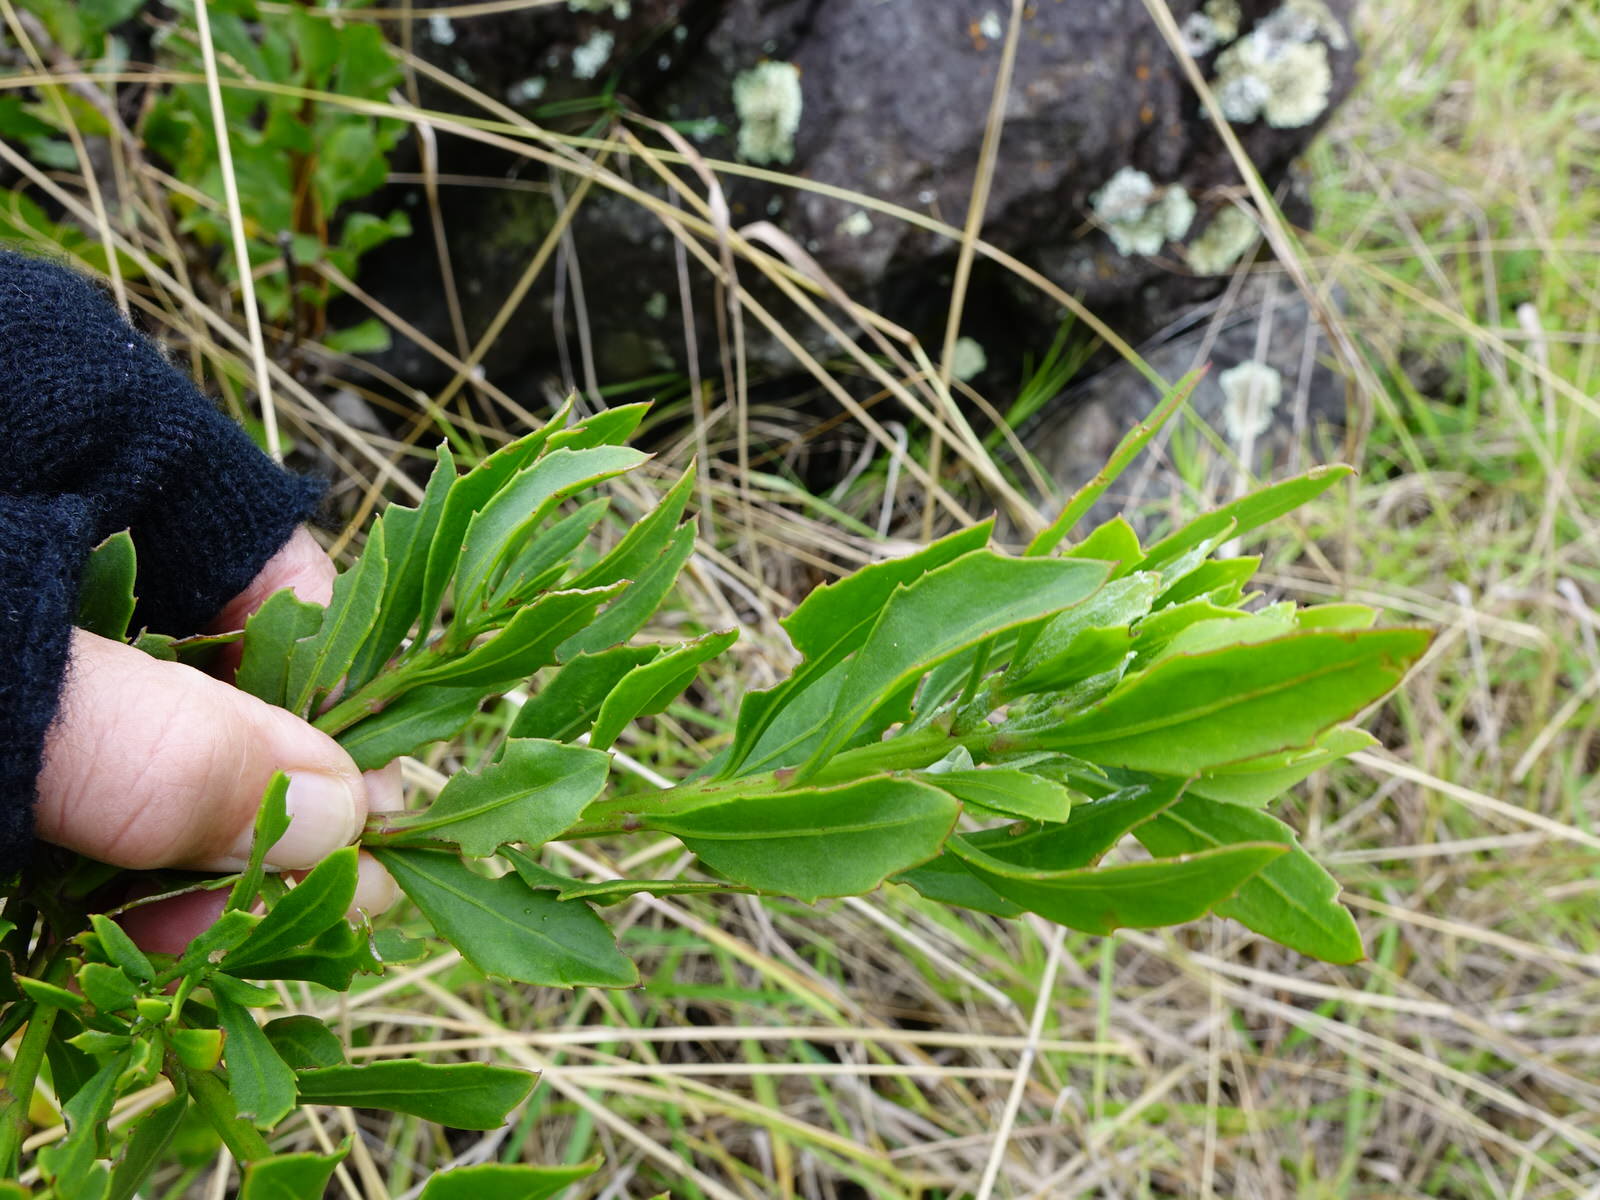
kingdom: Plantae
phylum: Tracheophyta
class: Magnoliopsida
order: Asterales
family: Asteraceae
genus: Osteospermum
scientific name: Osteospermum moniliferum
